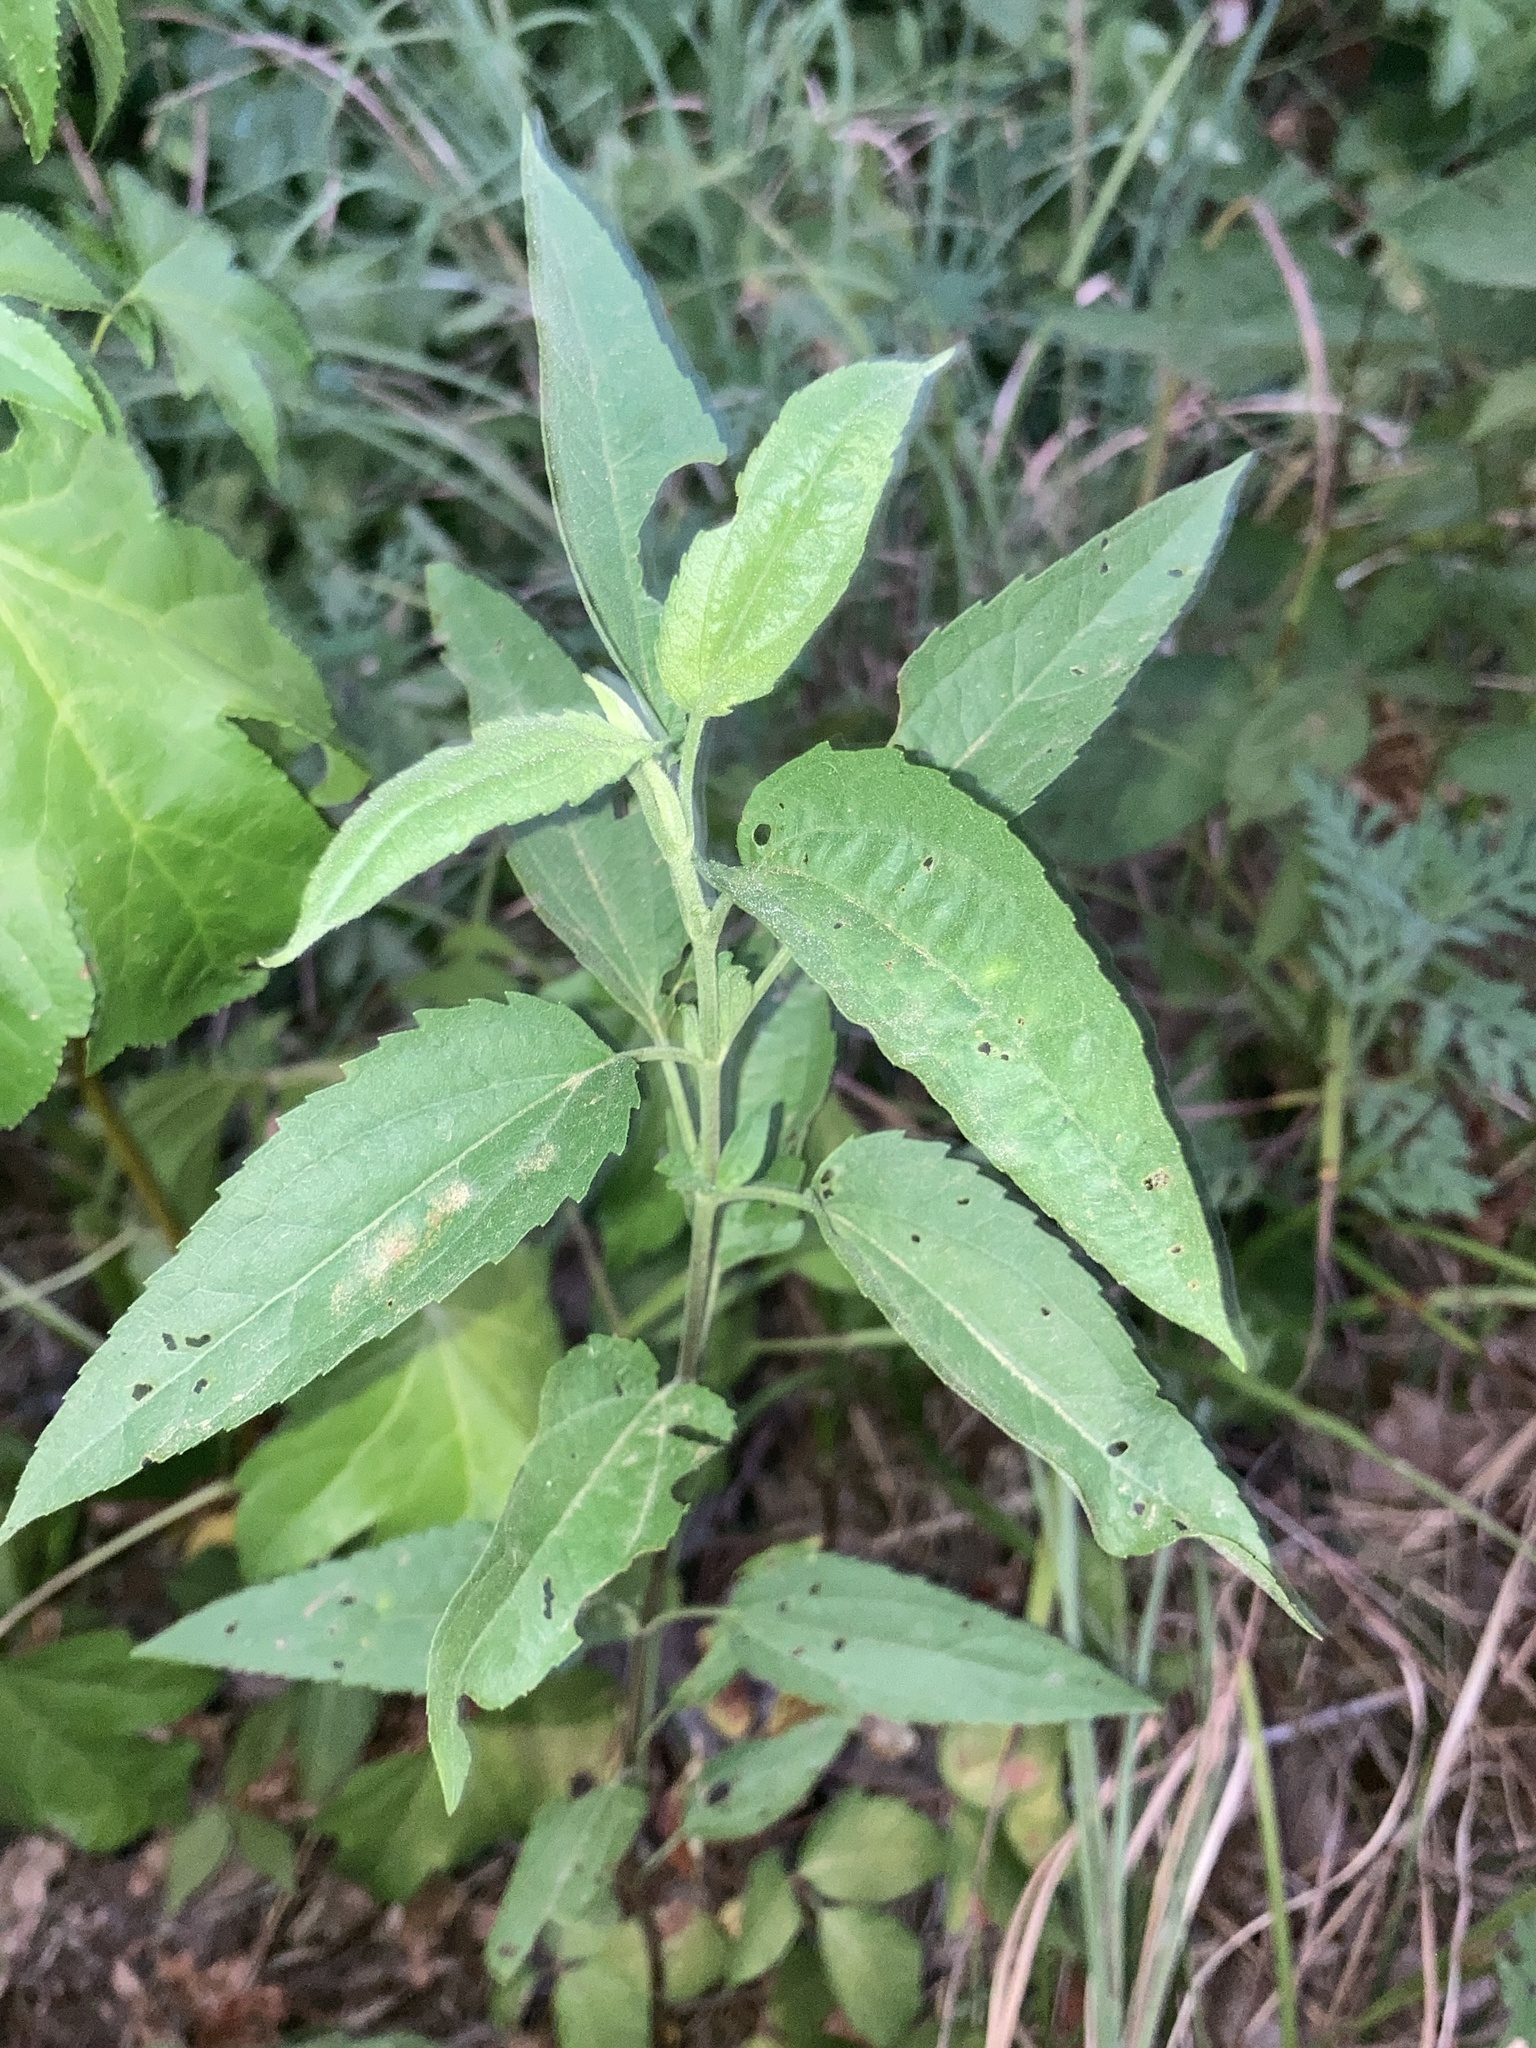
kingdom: Plantae
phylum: Tracheophyta
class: Magnoliopsida
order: Asterales
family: Asteraceae
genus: Eupatorium
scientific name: Eupatorium serotinum
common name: Late boneset
